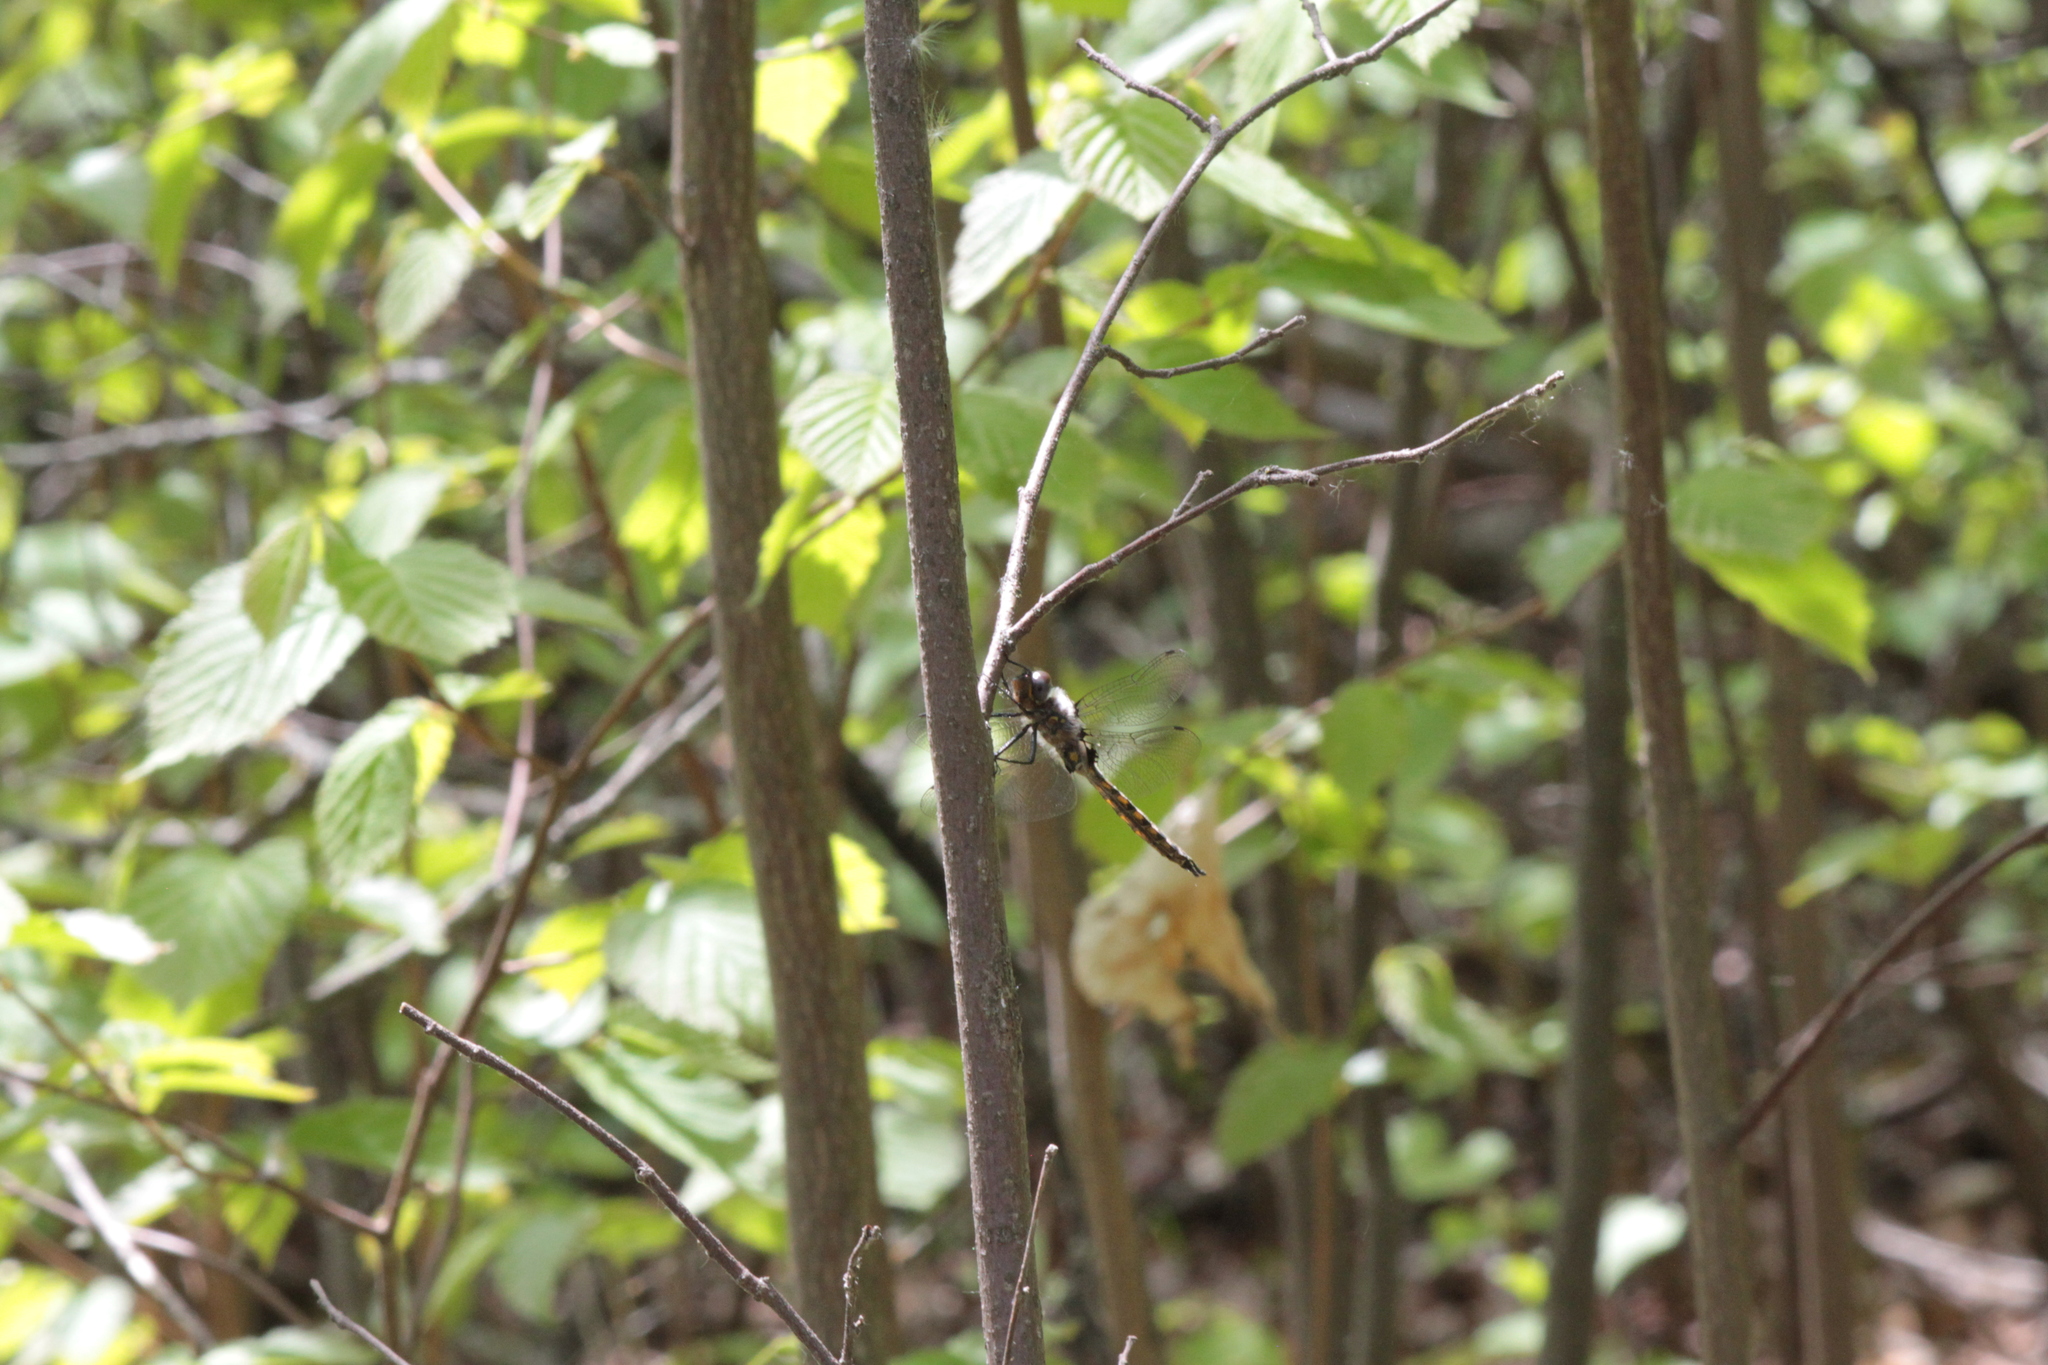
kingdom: Animalia
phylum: Arthropoda
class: Insecta
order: Odonata
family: Corduliidae
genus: Epitheca
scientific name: Epitheca spinigera
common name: Spiny baskettail
